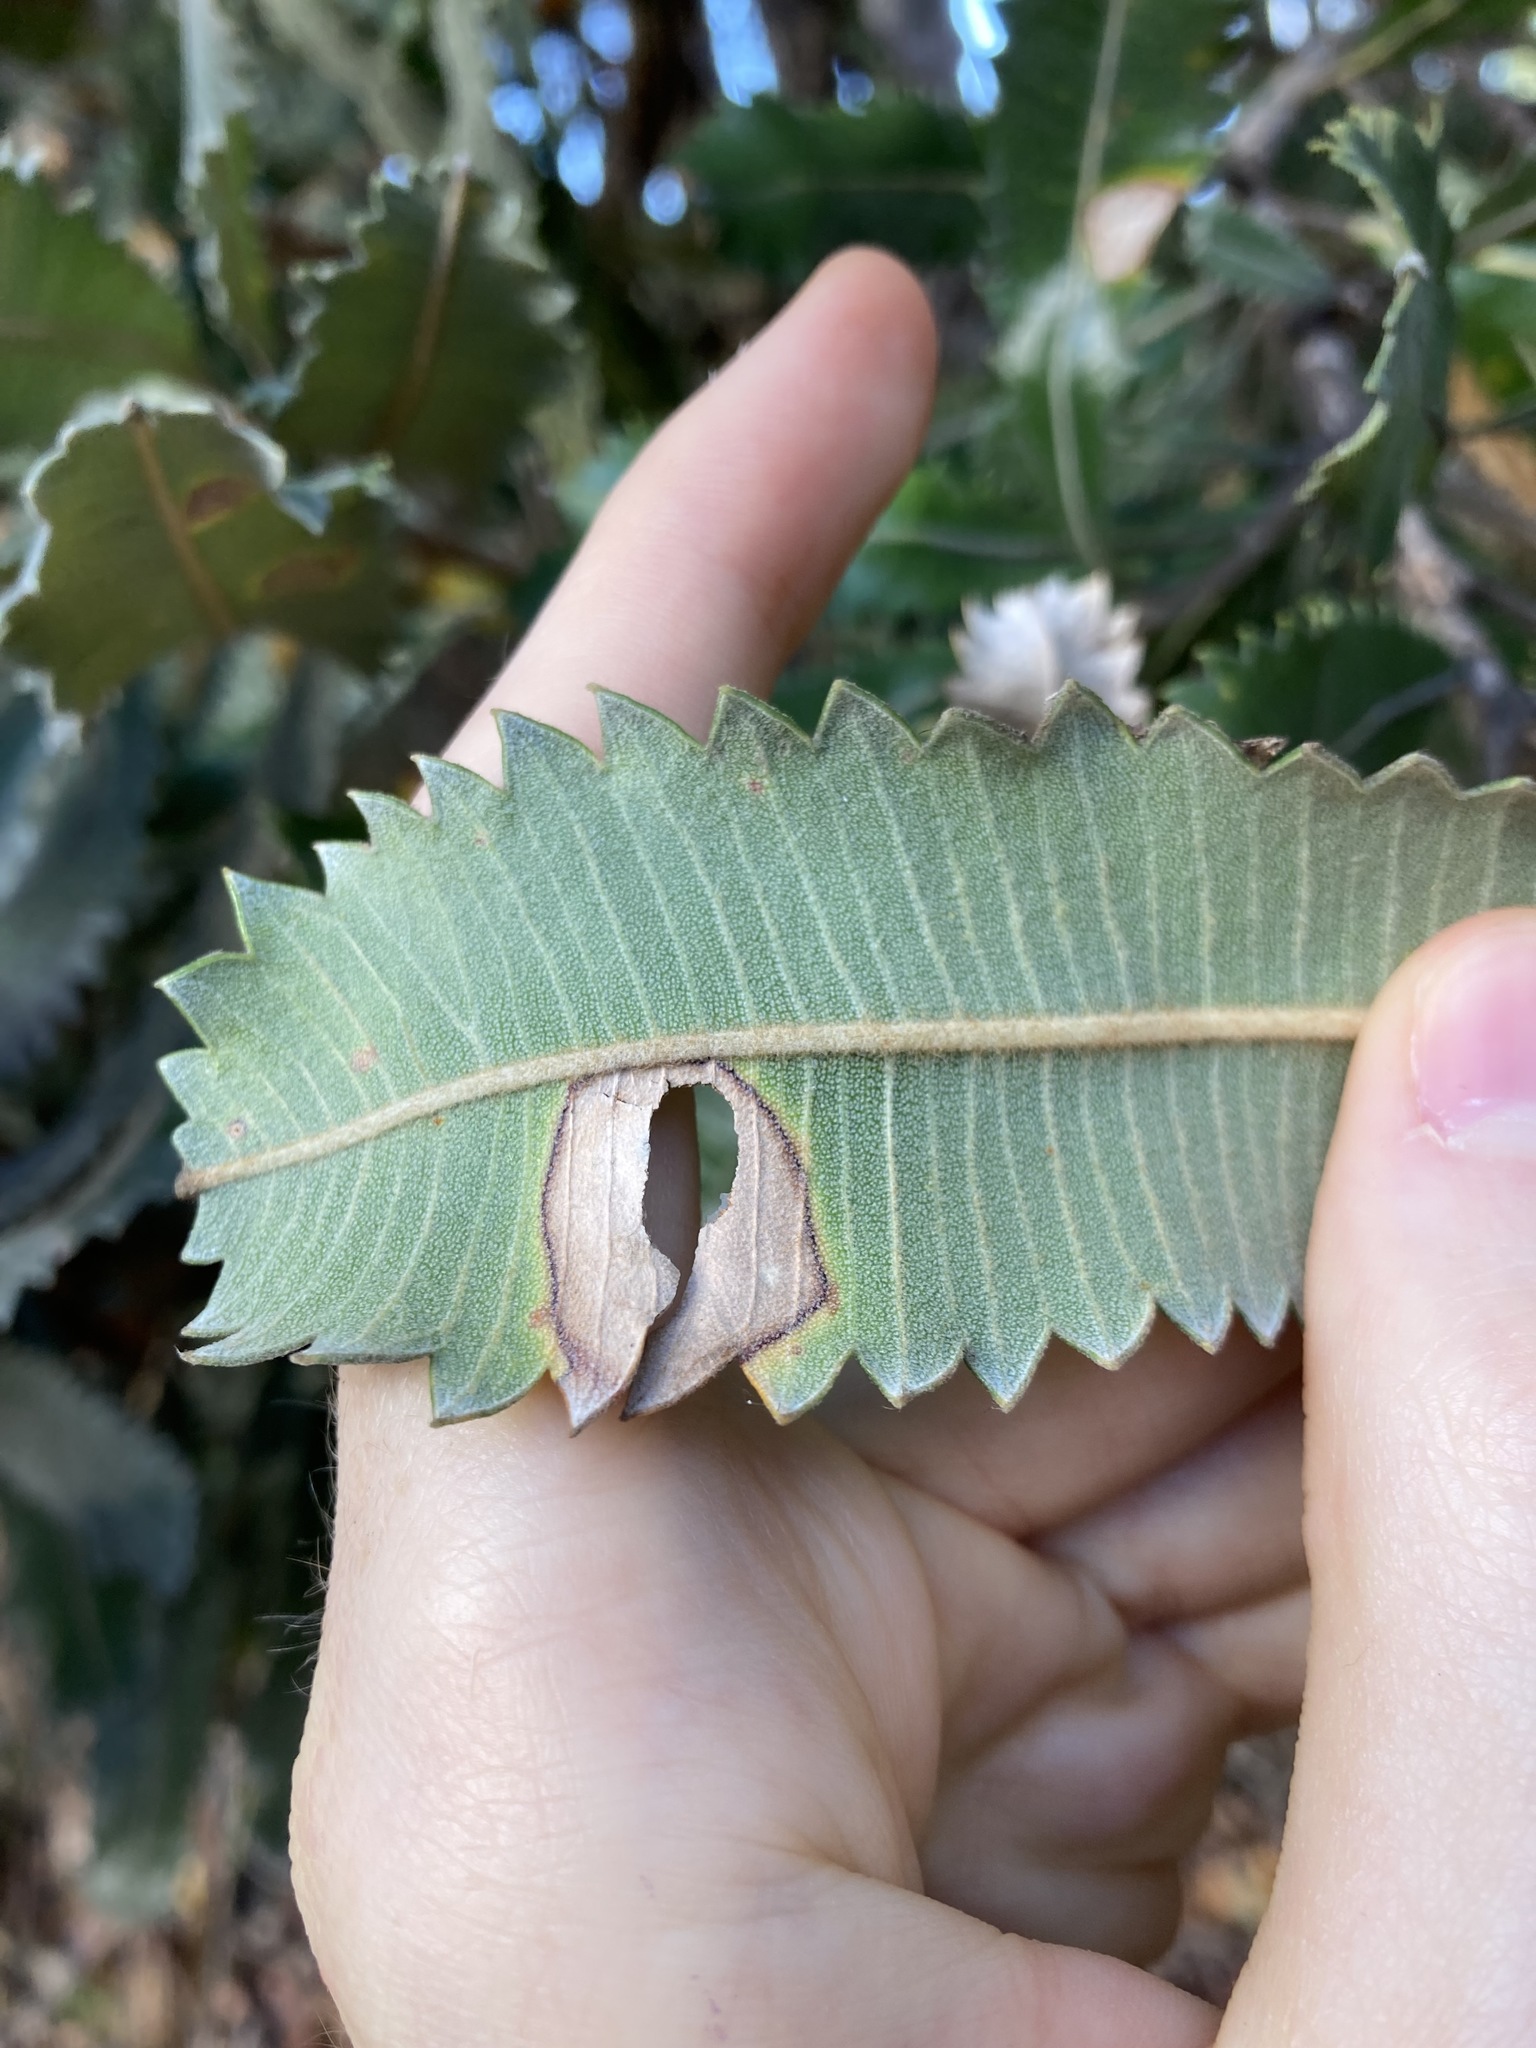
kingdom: Plantae
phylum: Tracheophyta
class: Magnoliopsida
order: Proteales
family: Proteaceae
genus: Banksia
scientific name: Banksia serrata
